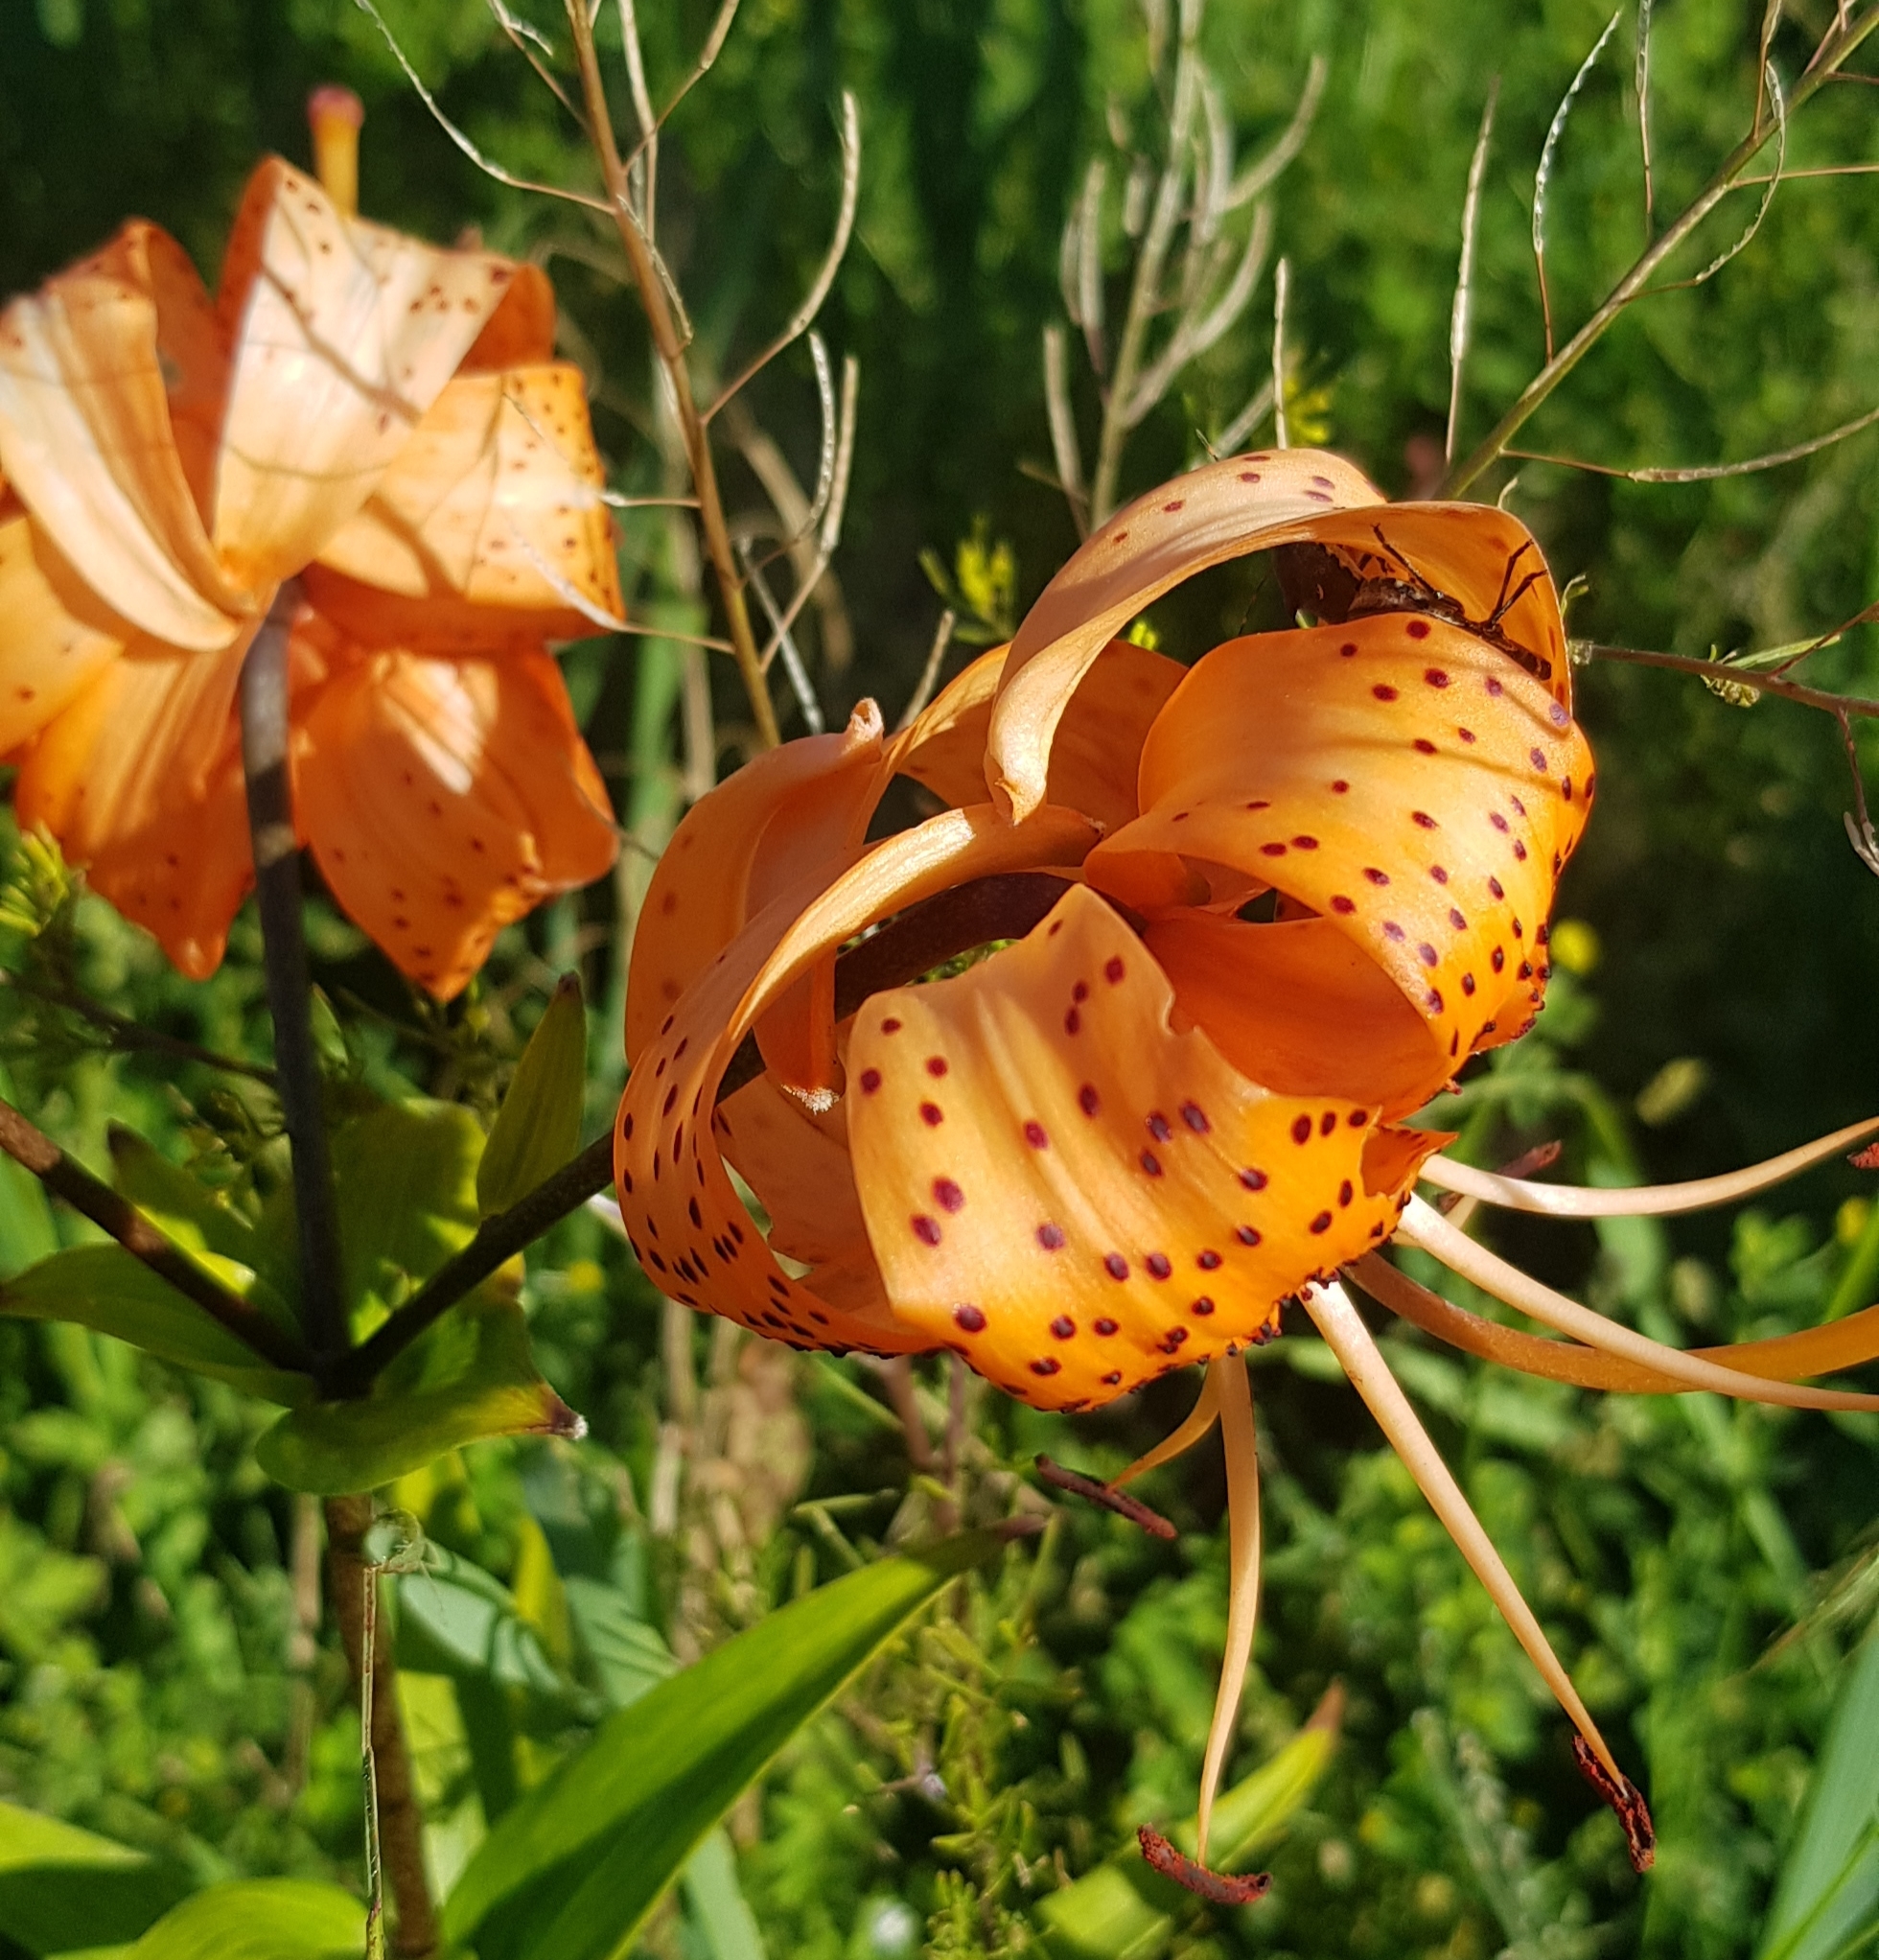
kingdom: Plantae
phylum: Tracheophyta
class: Liliopsida
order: Liliales
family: Liliaceae
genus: Lilium
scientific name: Lilium pensylvanicum
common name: Candlestick lily
